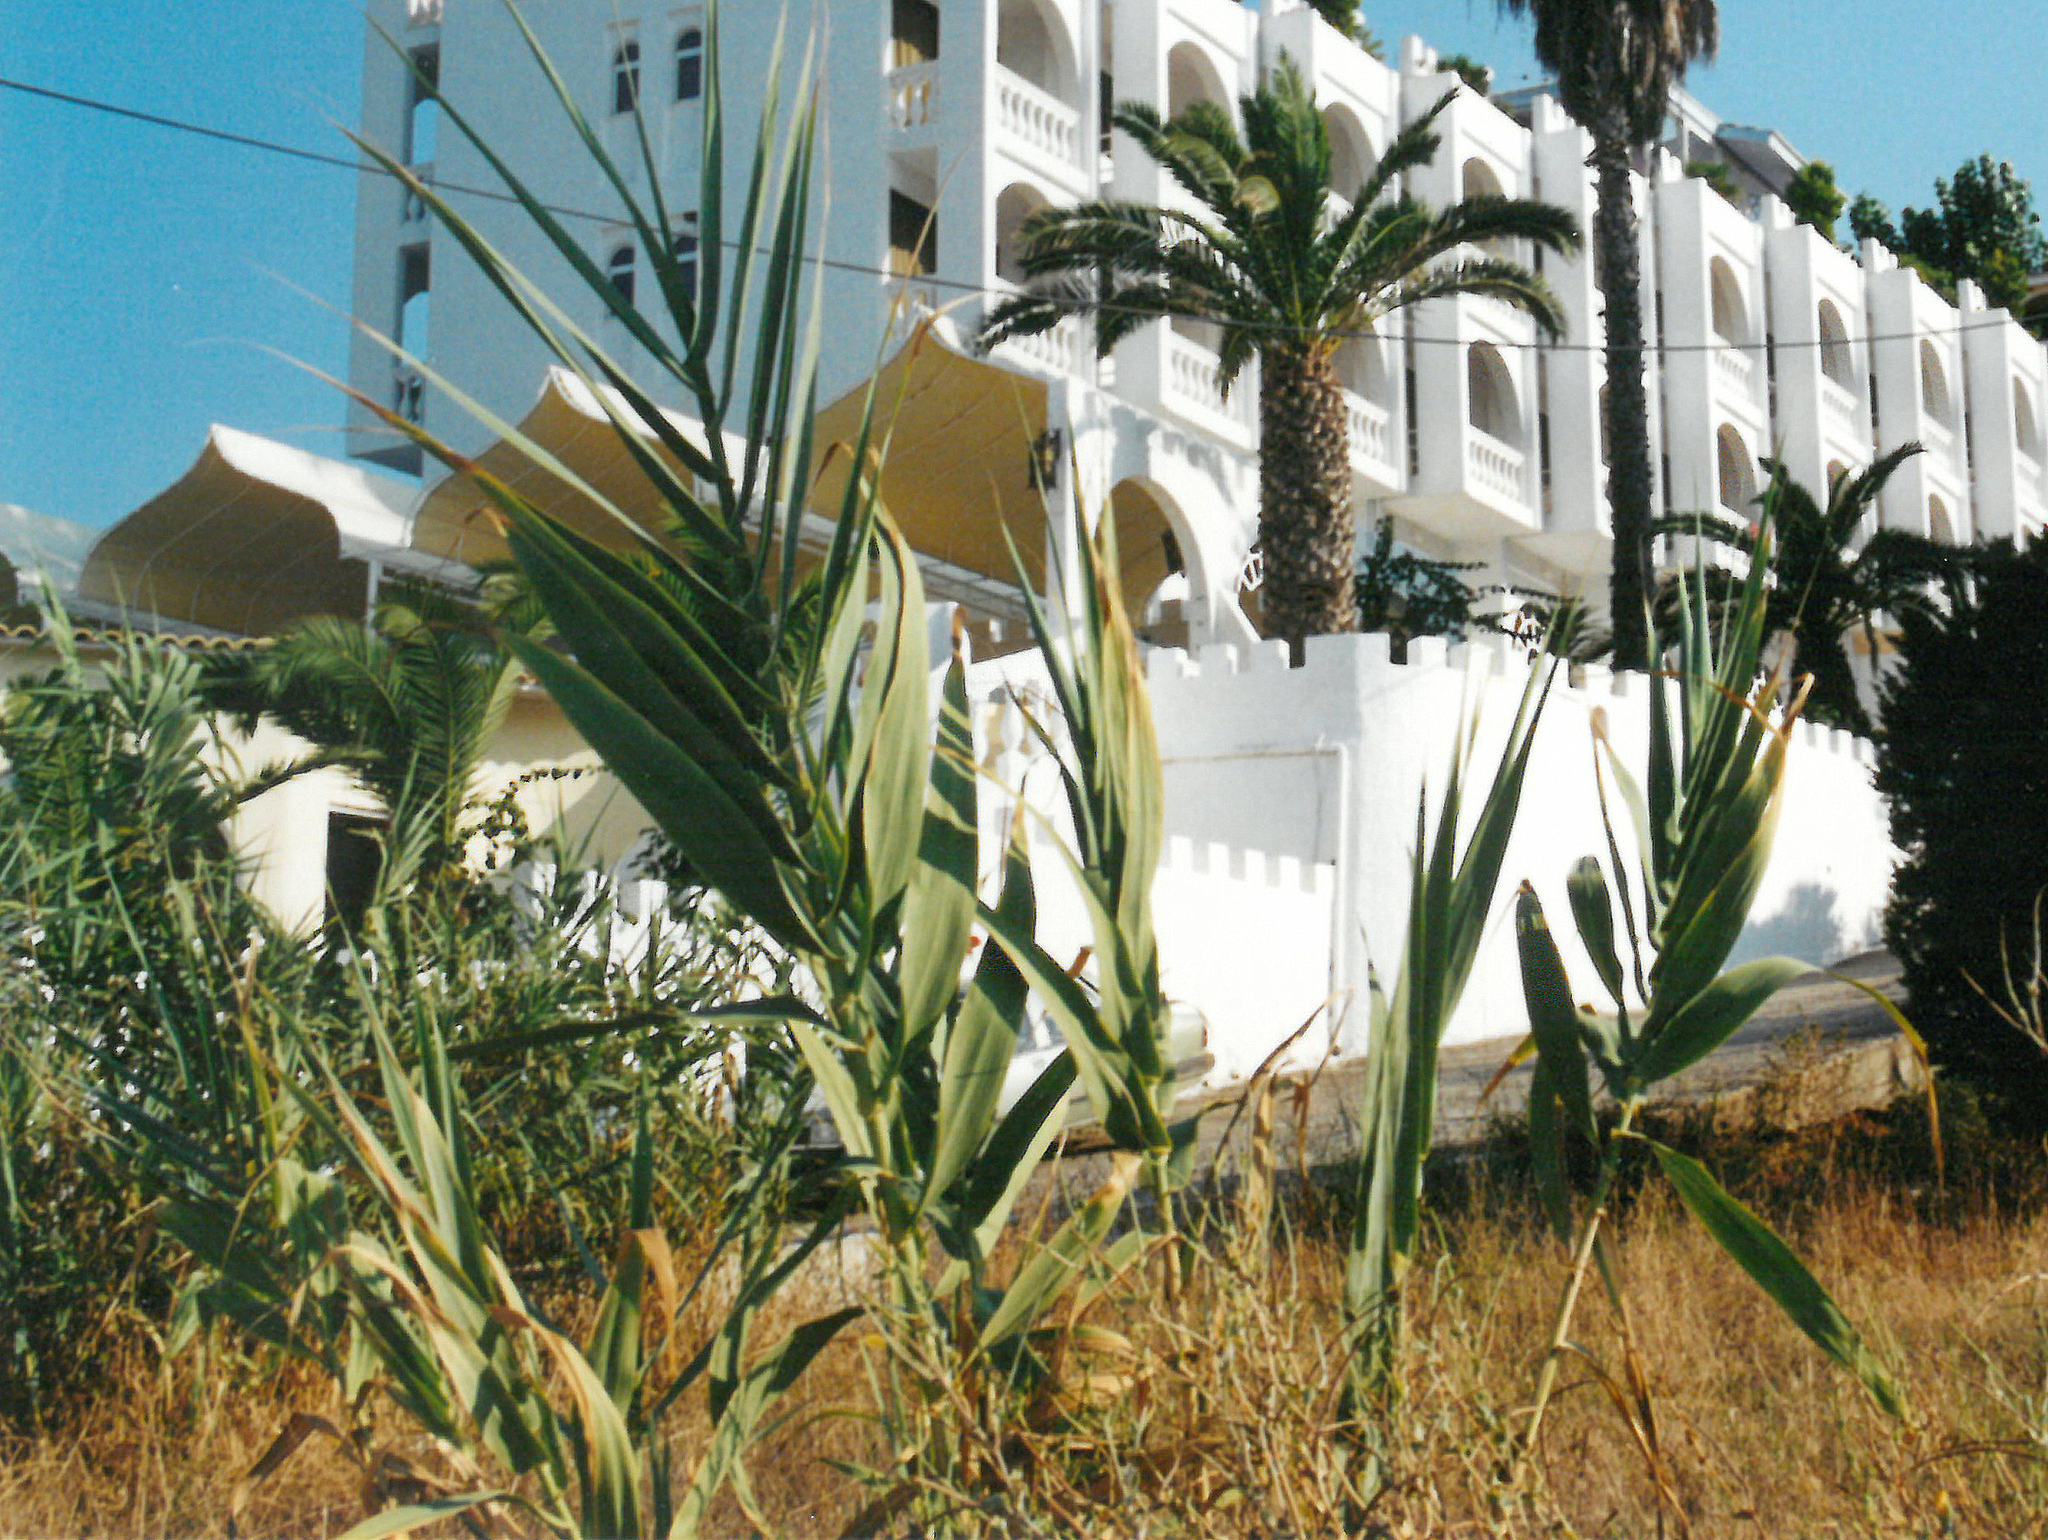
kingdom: Plantae
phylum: Tracheophyta
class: Liliopsida
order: Poales
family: Poaceae
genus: Arundo
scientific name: Arundo donax
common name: Giant reed
